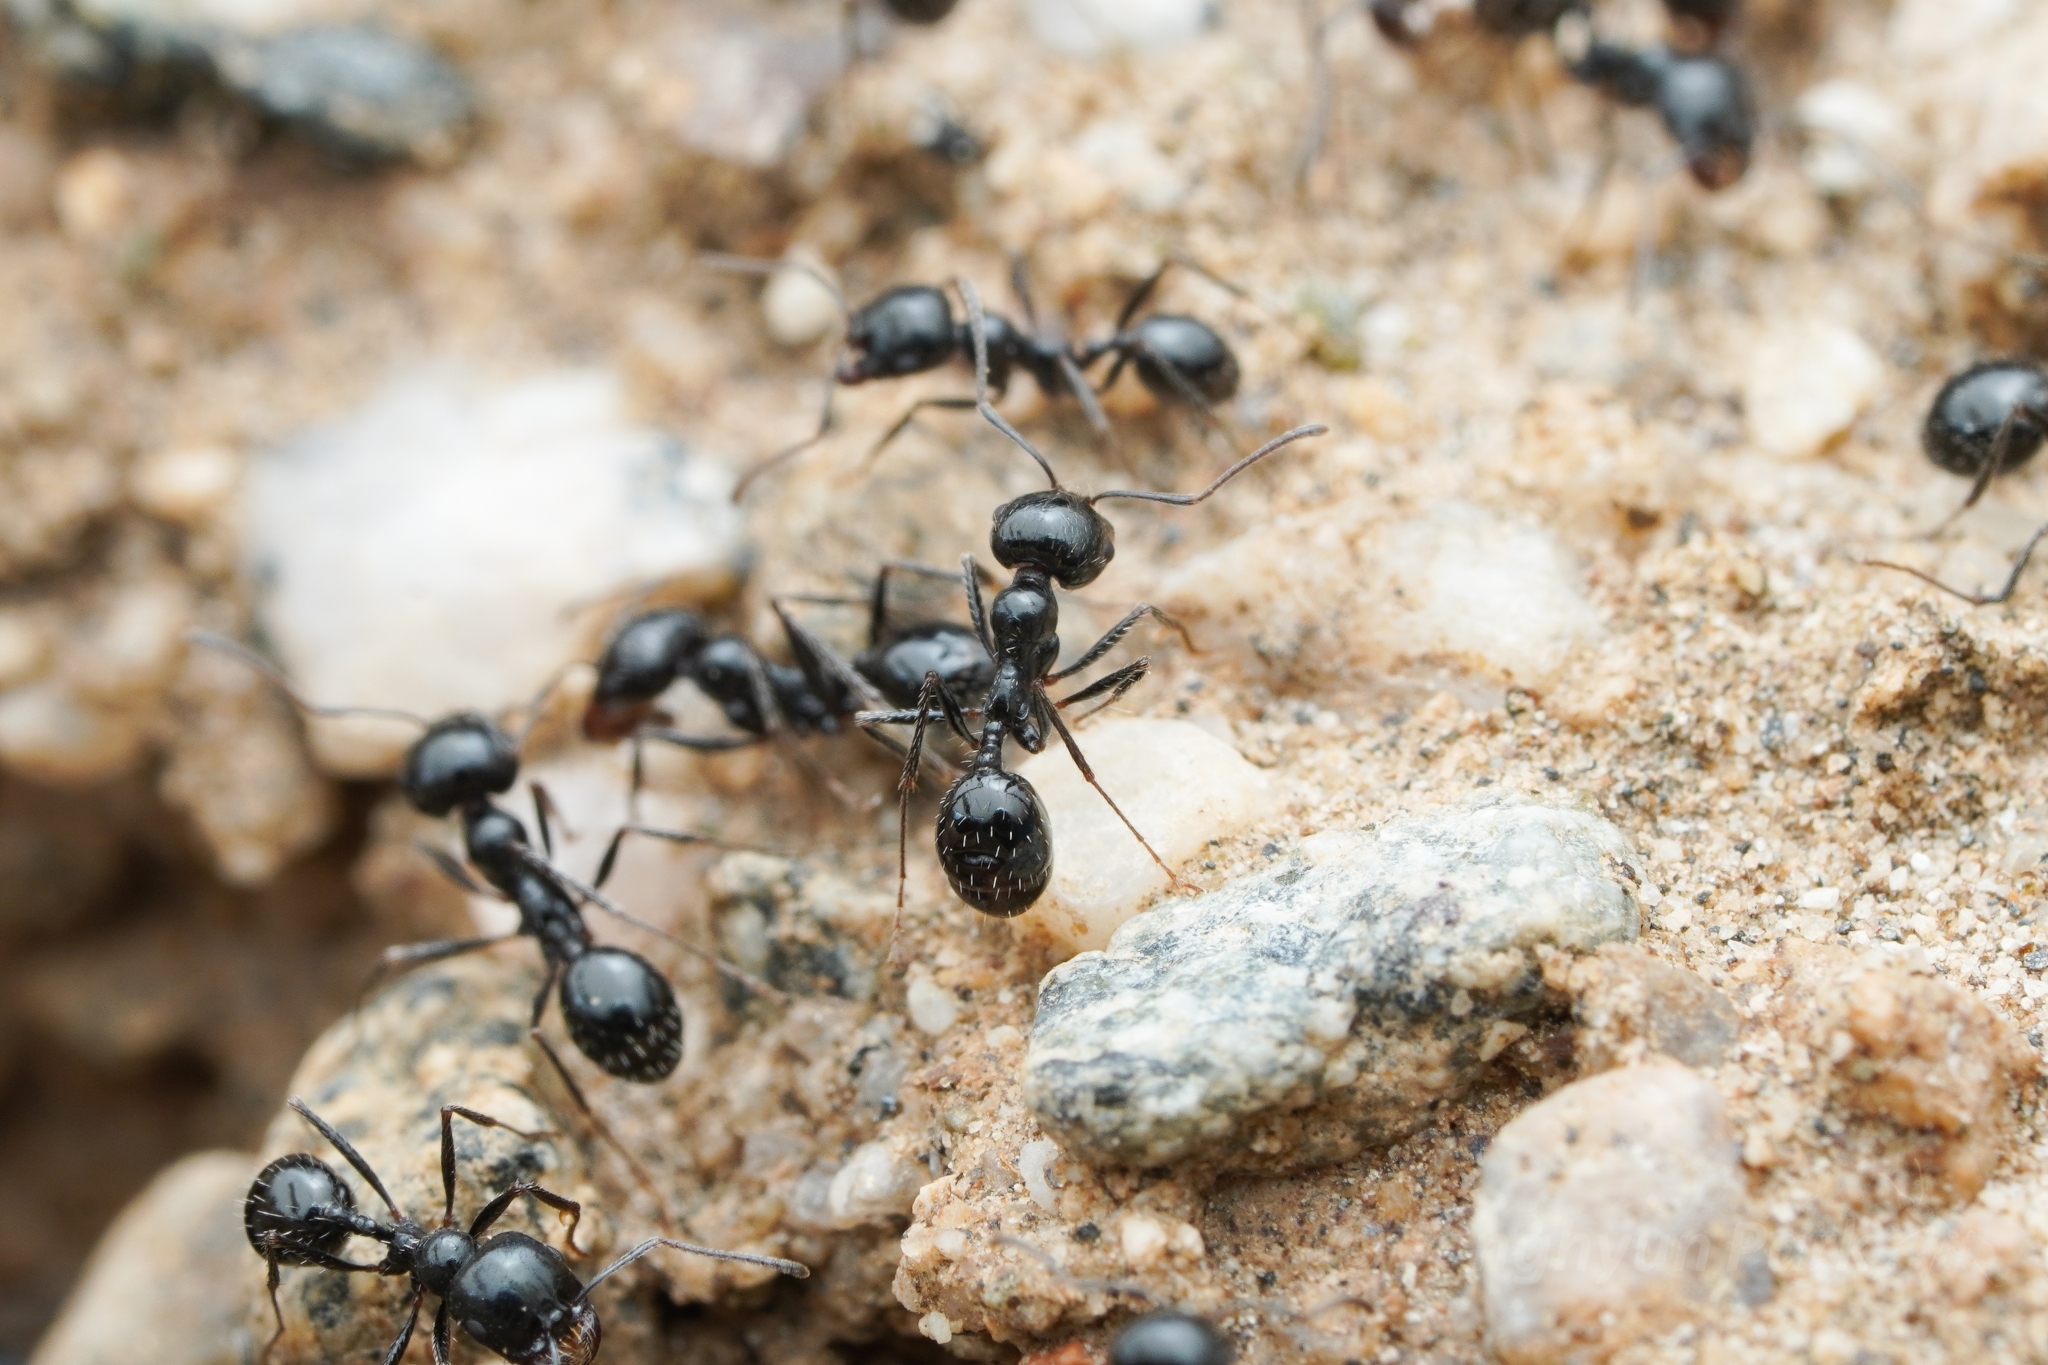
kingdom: Animalia
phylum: Arthropoda
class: Insecta
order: Hymenoptera
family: Formicidae
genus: Messor
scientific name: Messor pergandei
